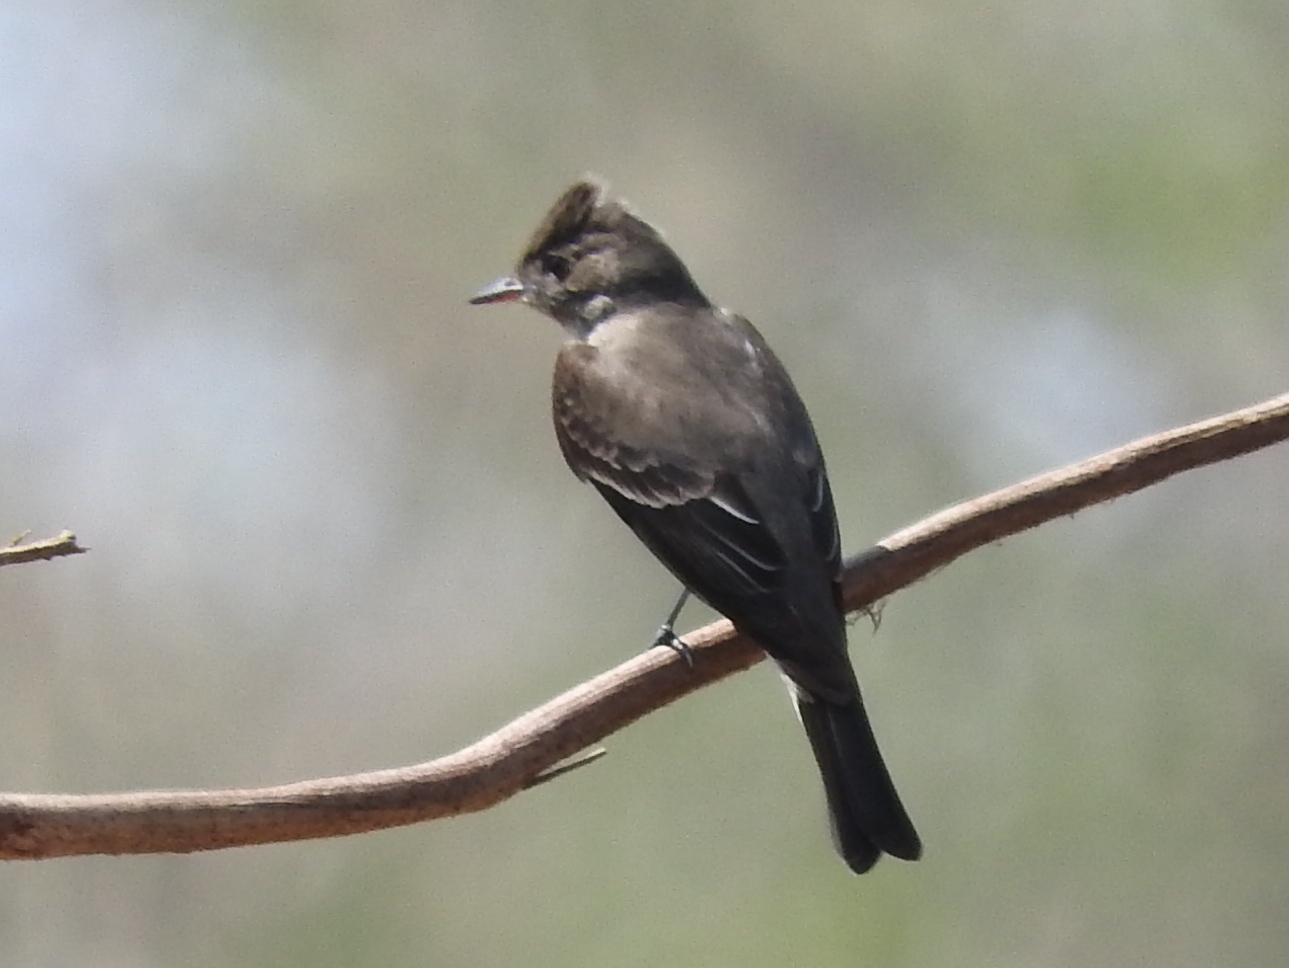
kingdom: Animalia
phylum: Chordata
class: Aves
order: Passeriformes
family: Tyrannidae
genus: Contopus
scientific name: Contopus
